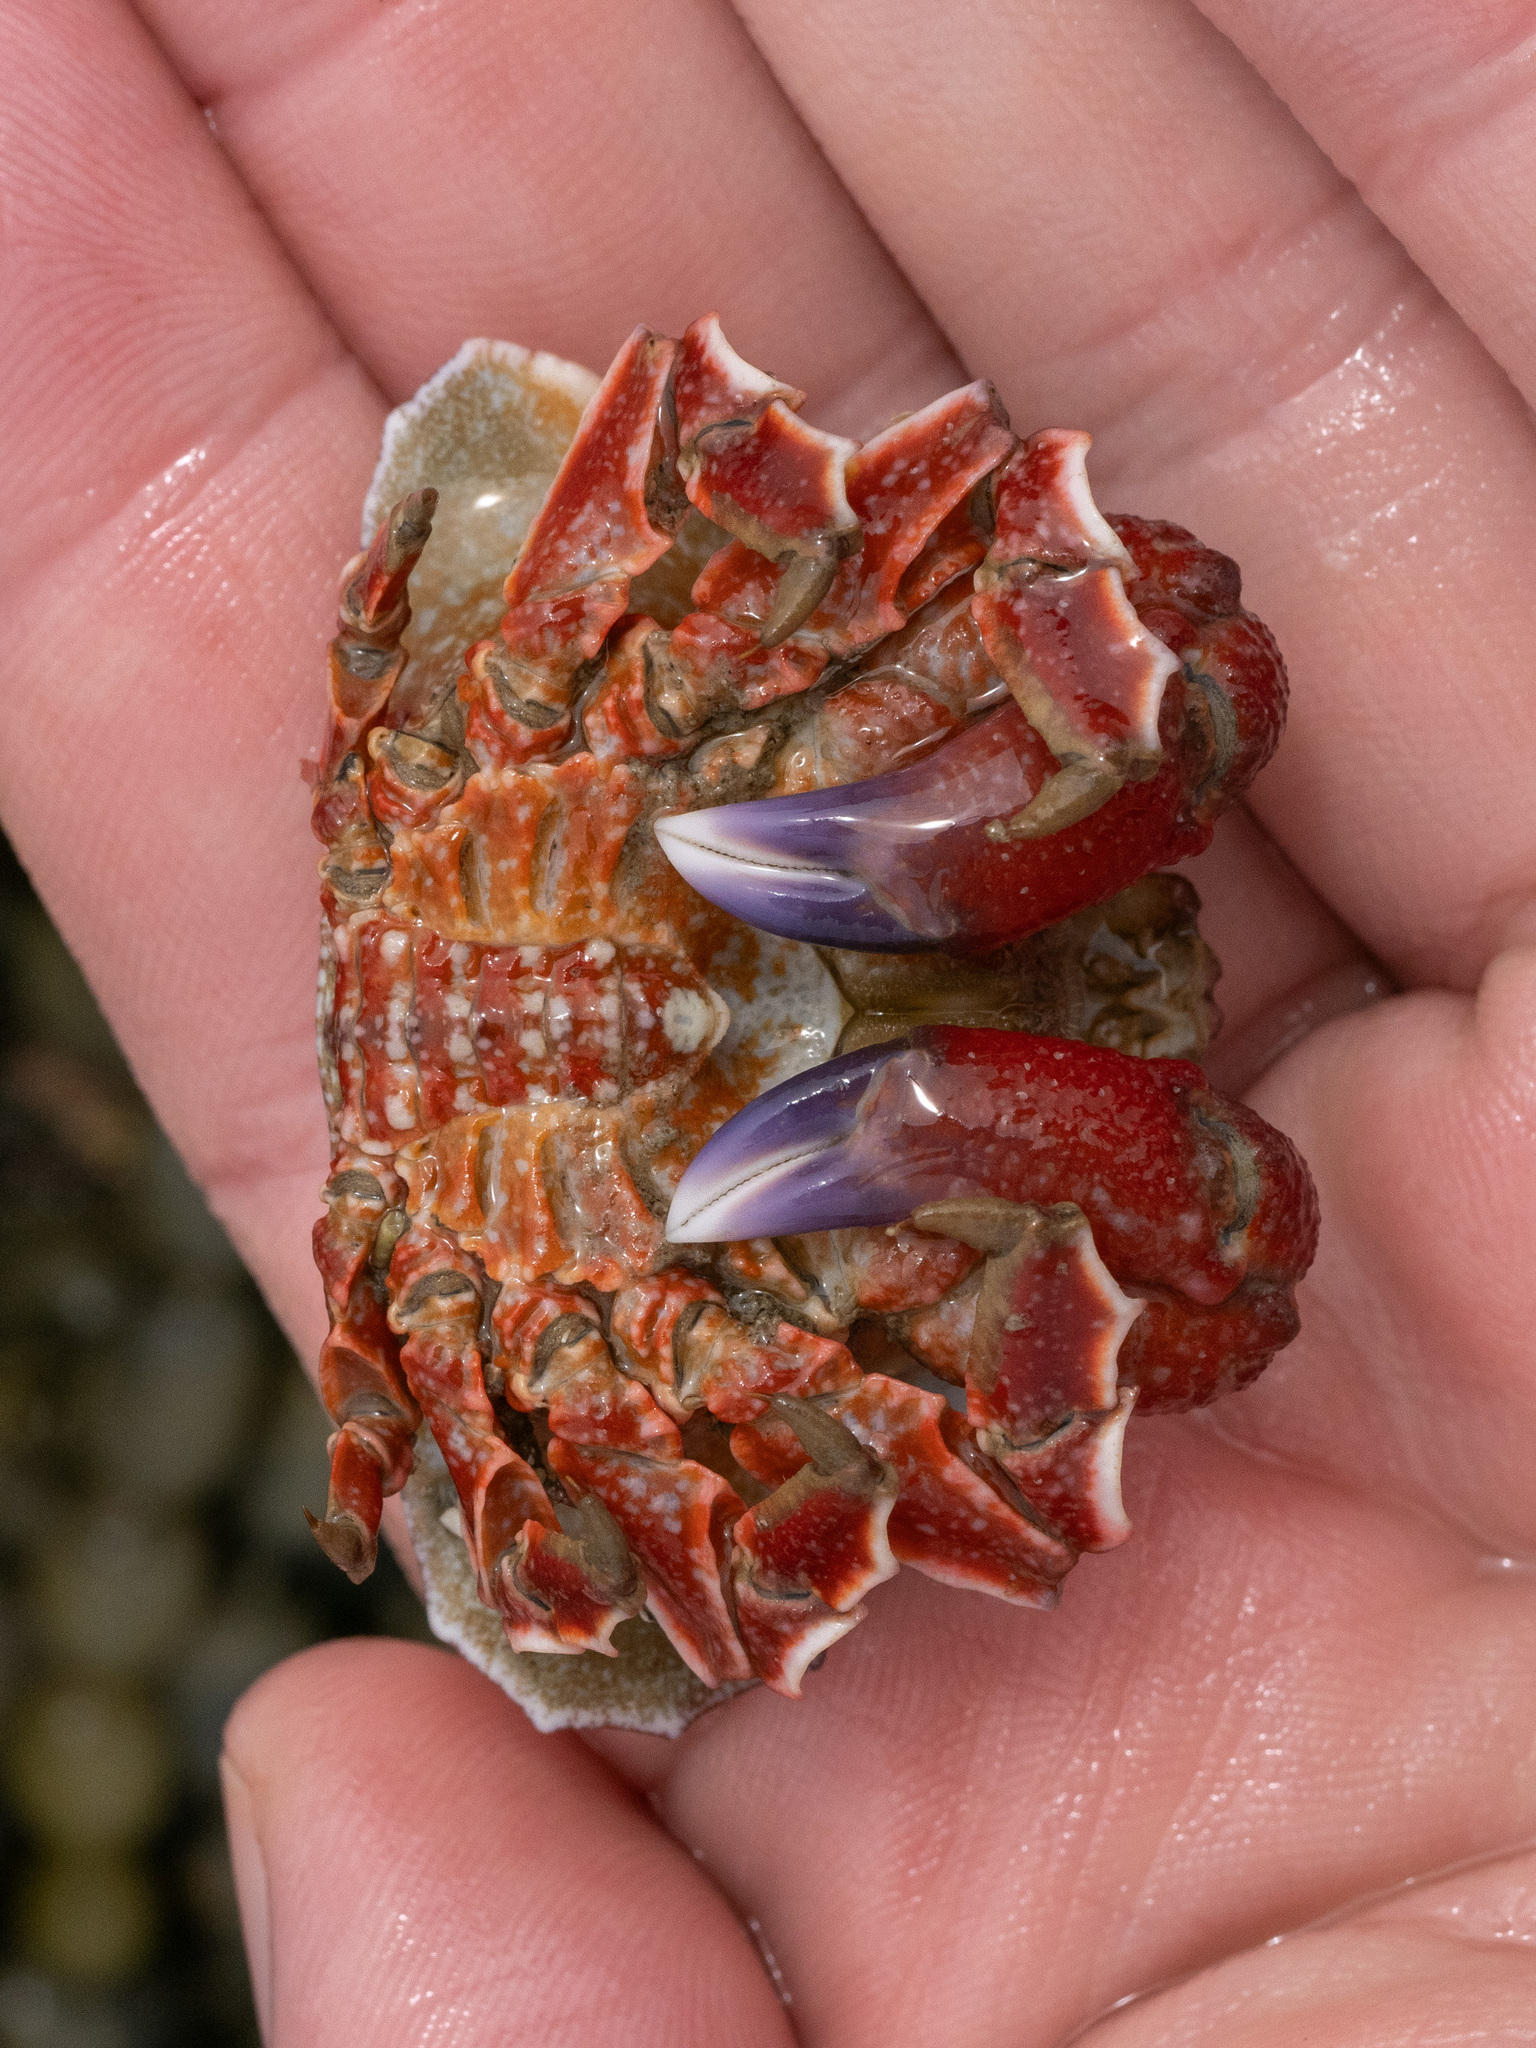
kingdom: Animalia
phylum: Arthropoda
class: Malacostraca
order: Decapoda
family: Majidae
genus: Eurynolambrus
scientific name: Eurynolambrus australis
